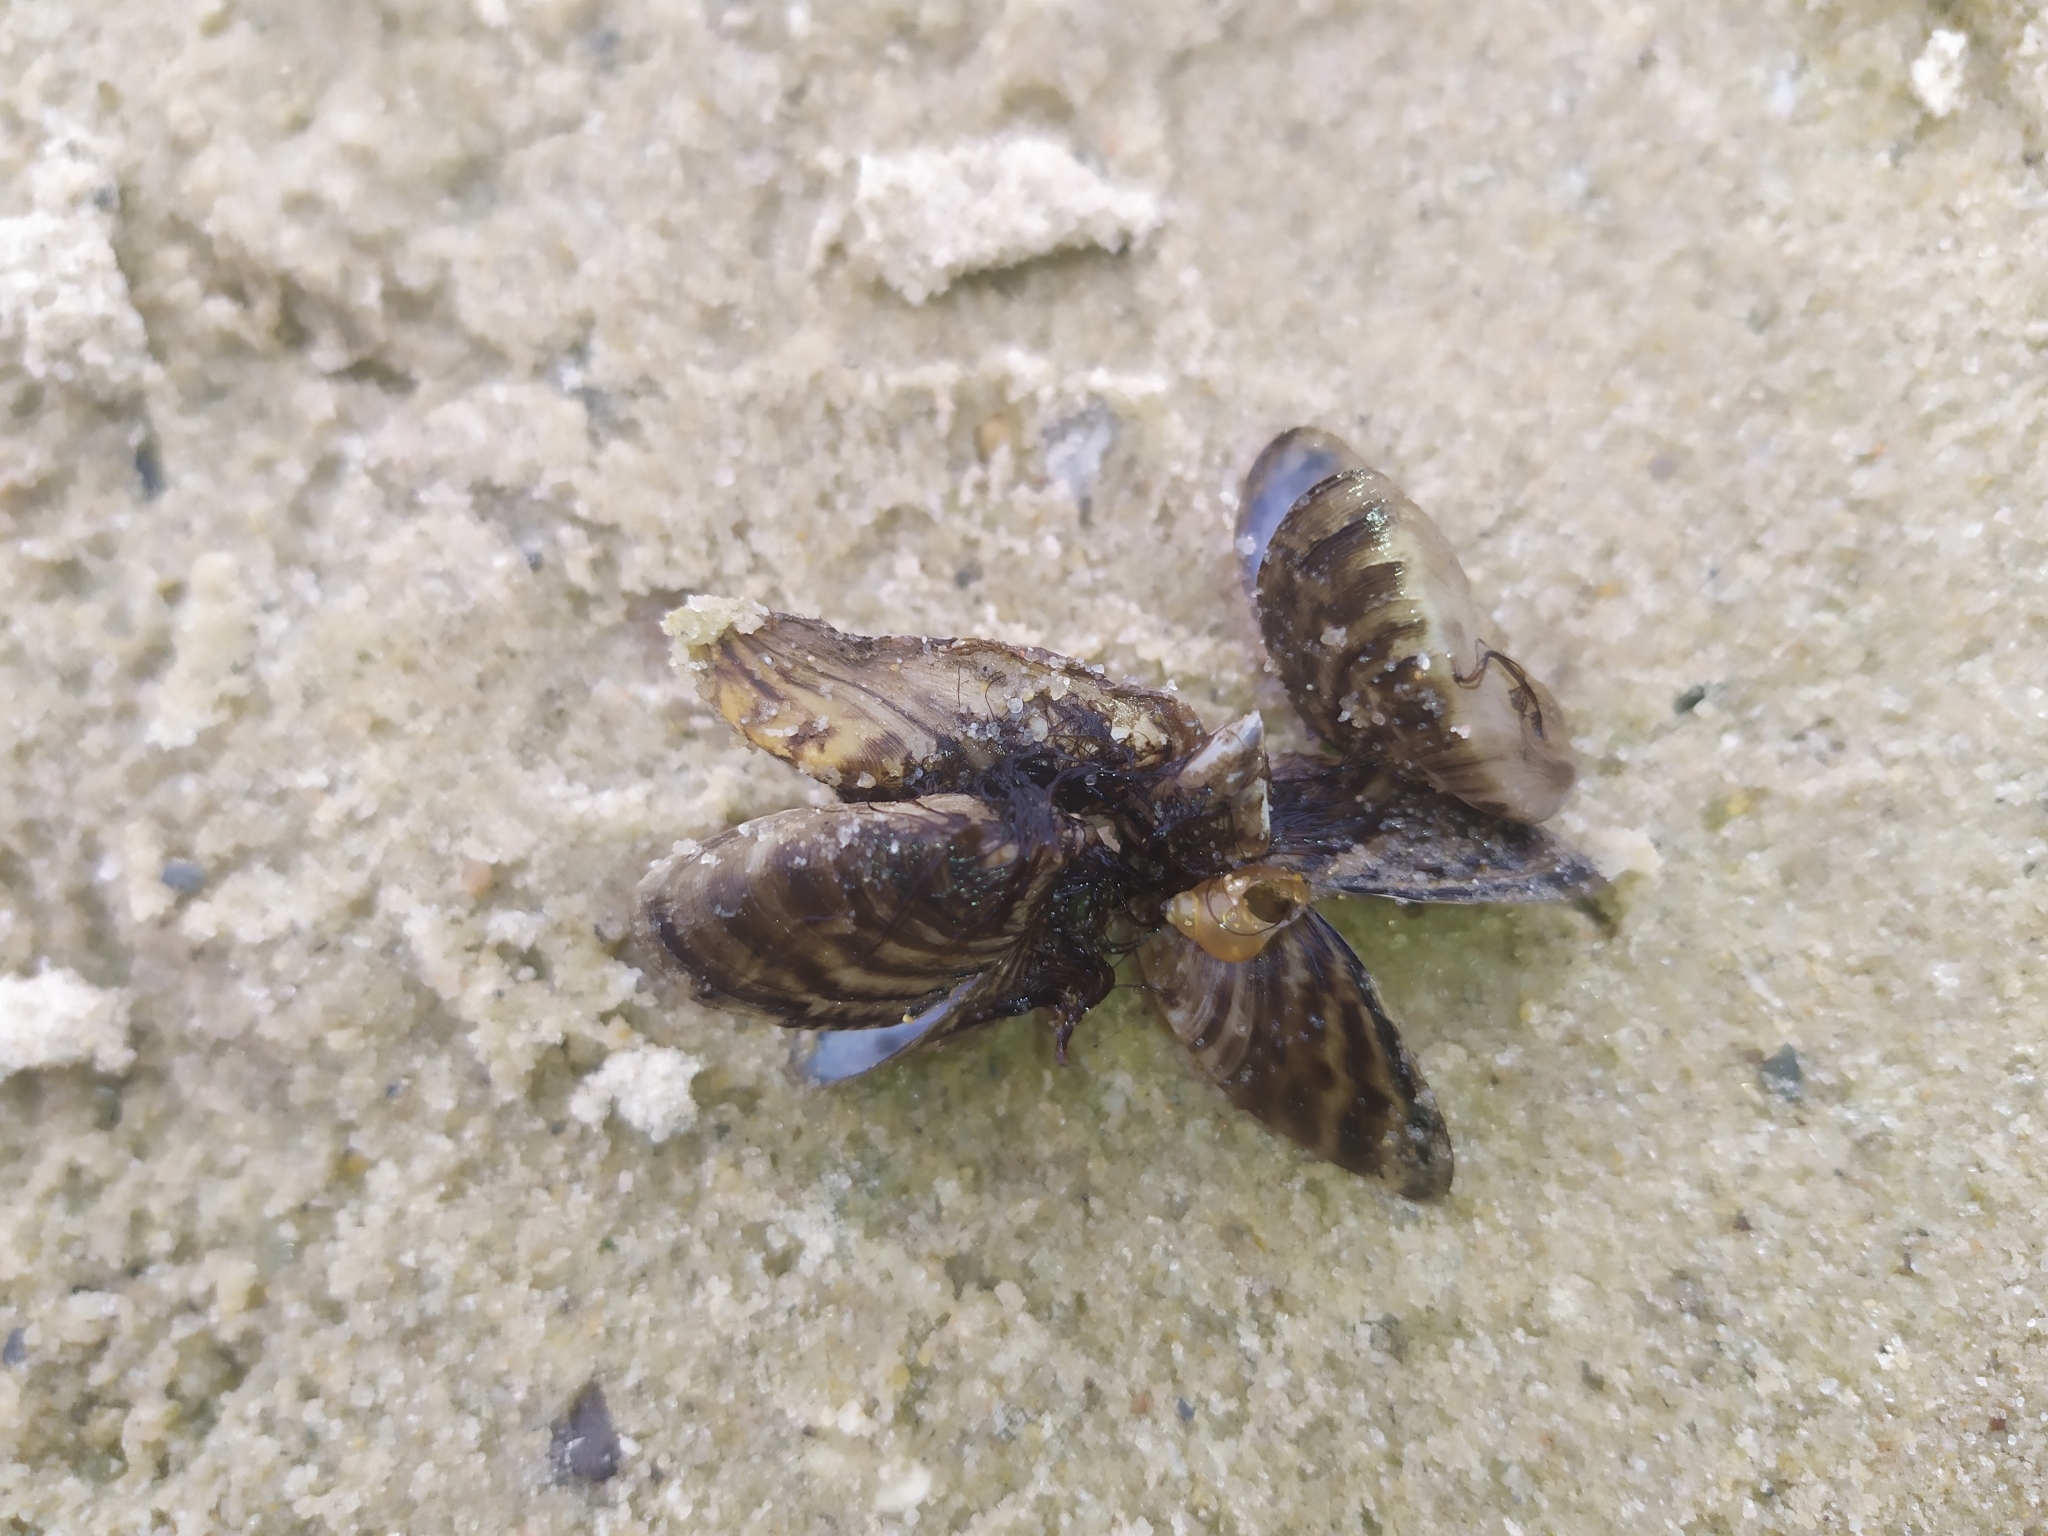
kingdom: Animalia
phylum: Mollusca
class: Bivalvia
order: Myida
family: Dreissenidae
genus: Dreissena
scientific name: Dreissena polymorpha
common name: Zebra mussel
